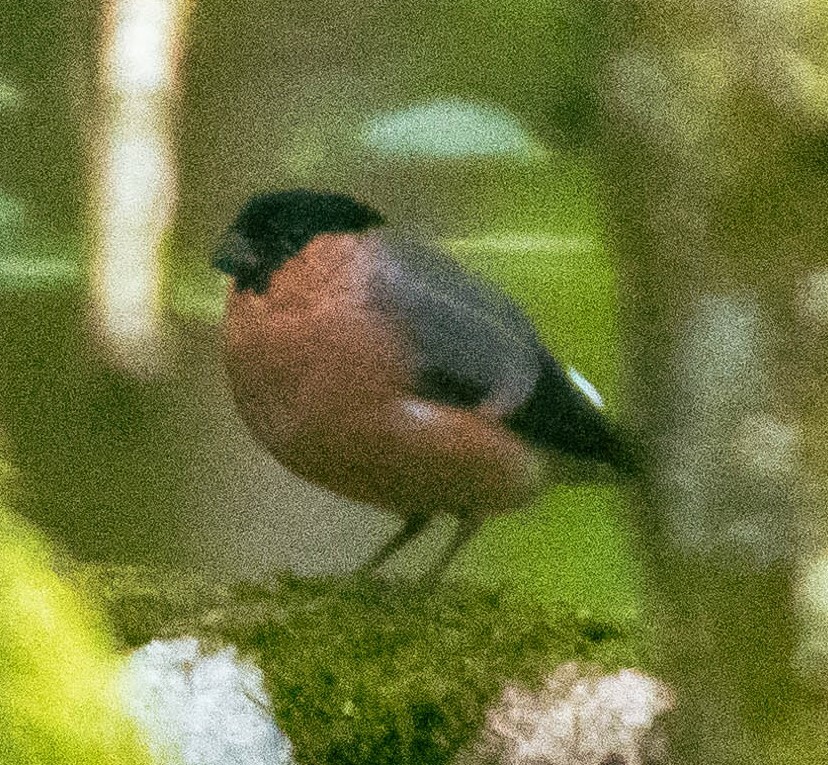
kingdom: Animalia
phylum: Chordata
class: Aves
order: Passeriformes
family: Fringillidae
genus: Pyrrhula
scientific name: Pyrrhula pyrrhula
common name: Eurasian bullfinch
